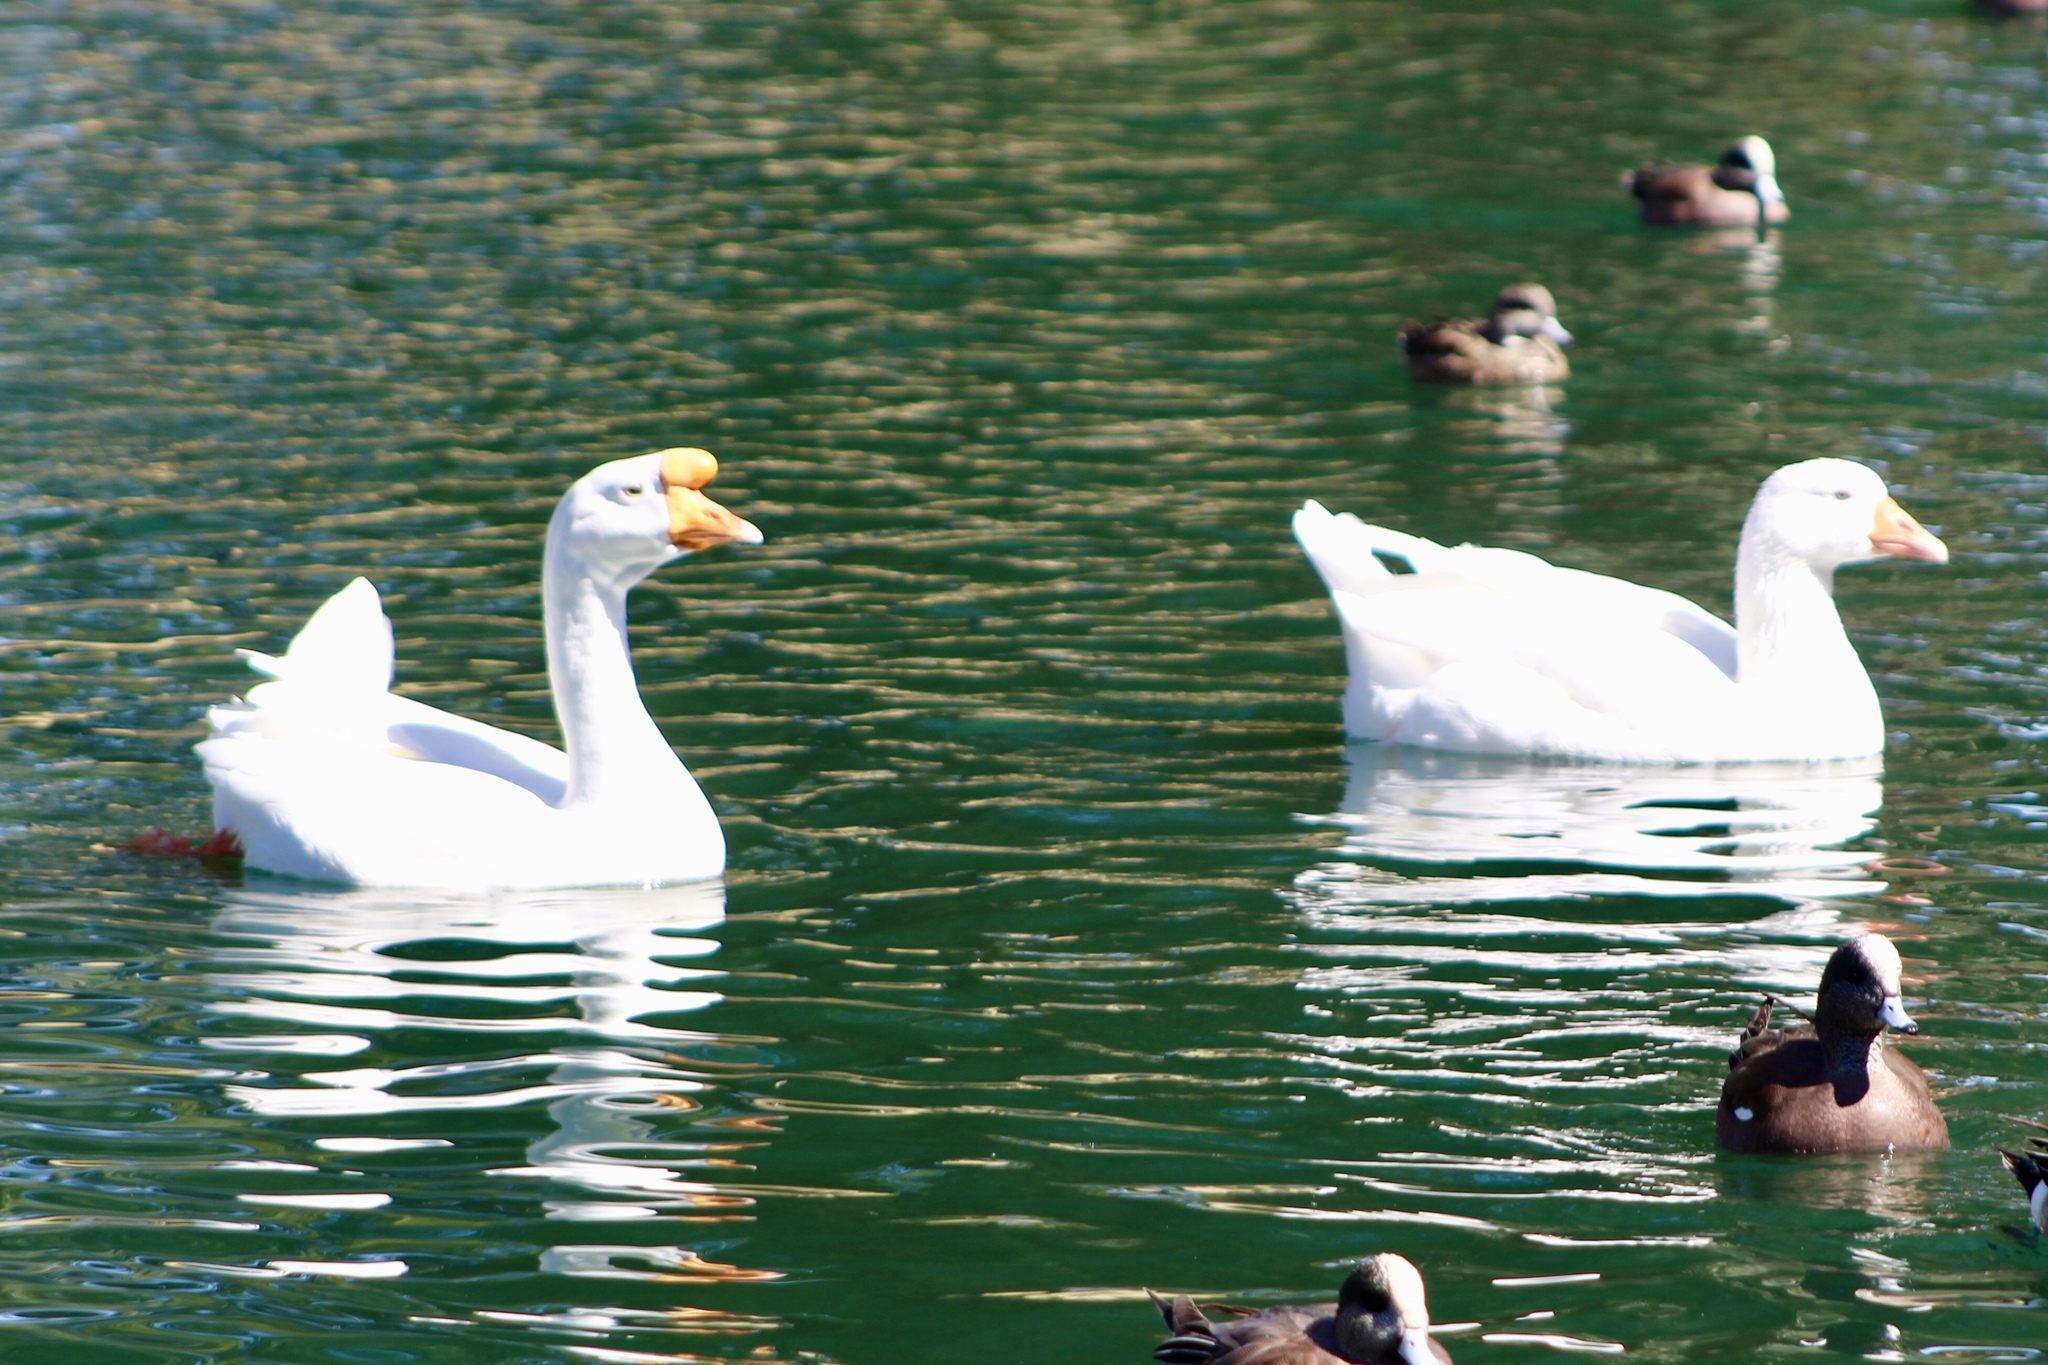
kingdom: Animalia
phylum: Chordata
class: Aves
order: Anseriformes
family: Anatidae
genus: Anser
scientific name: Anser cygnoides
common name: Swan goose
